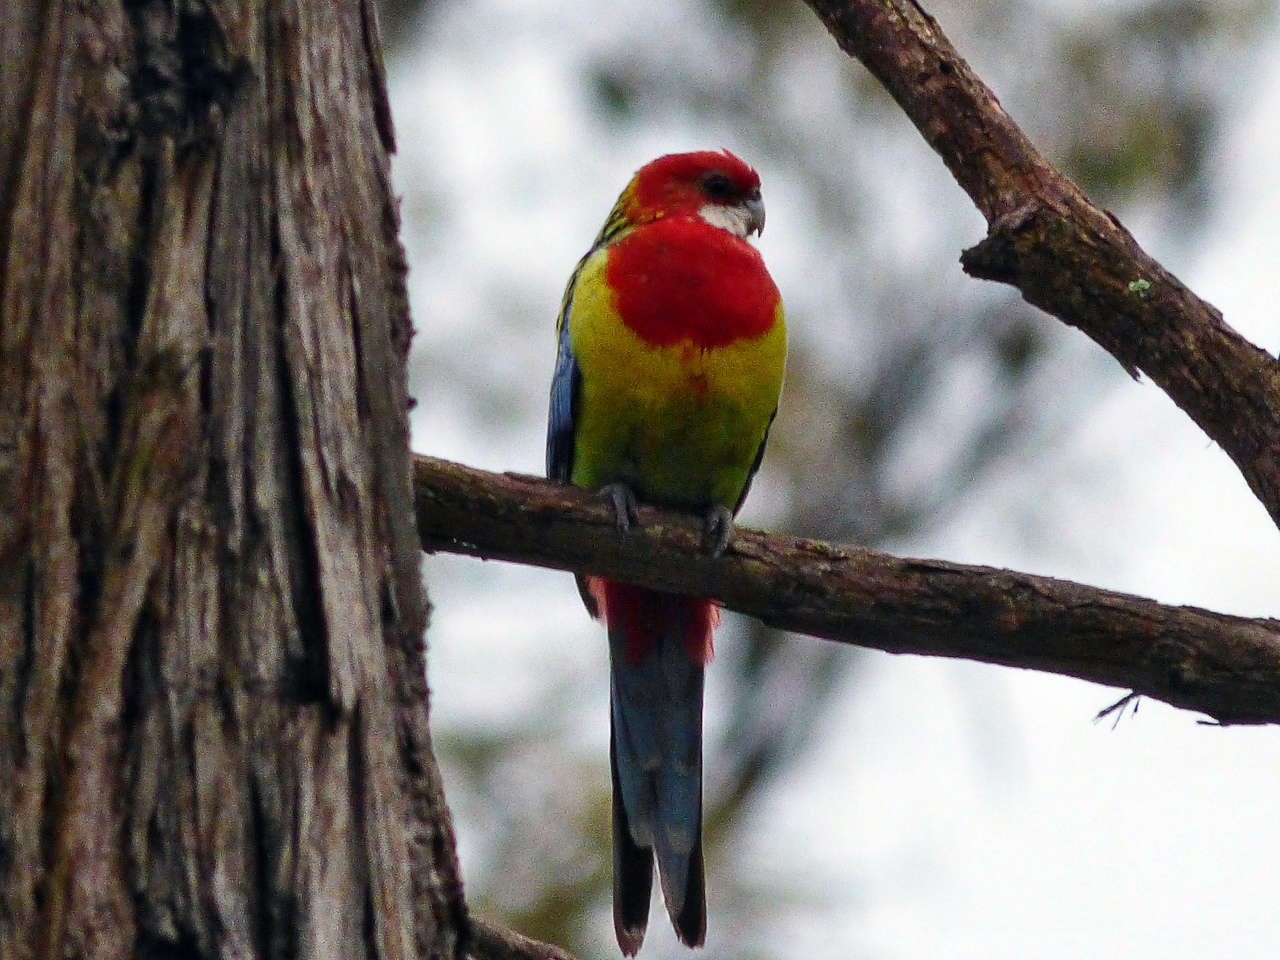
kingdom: Animalia
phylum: Chordata
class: Aves
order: Psittaciformes
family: Psittacidae
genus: Platycercus
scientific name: Platycercus eximius
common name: Eastern rosella
